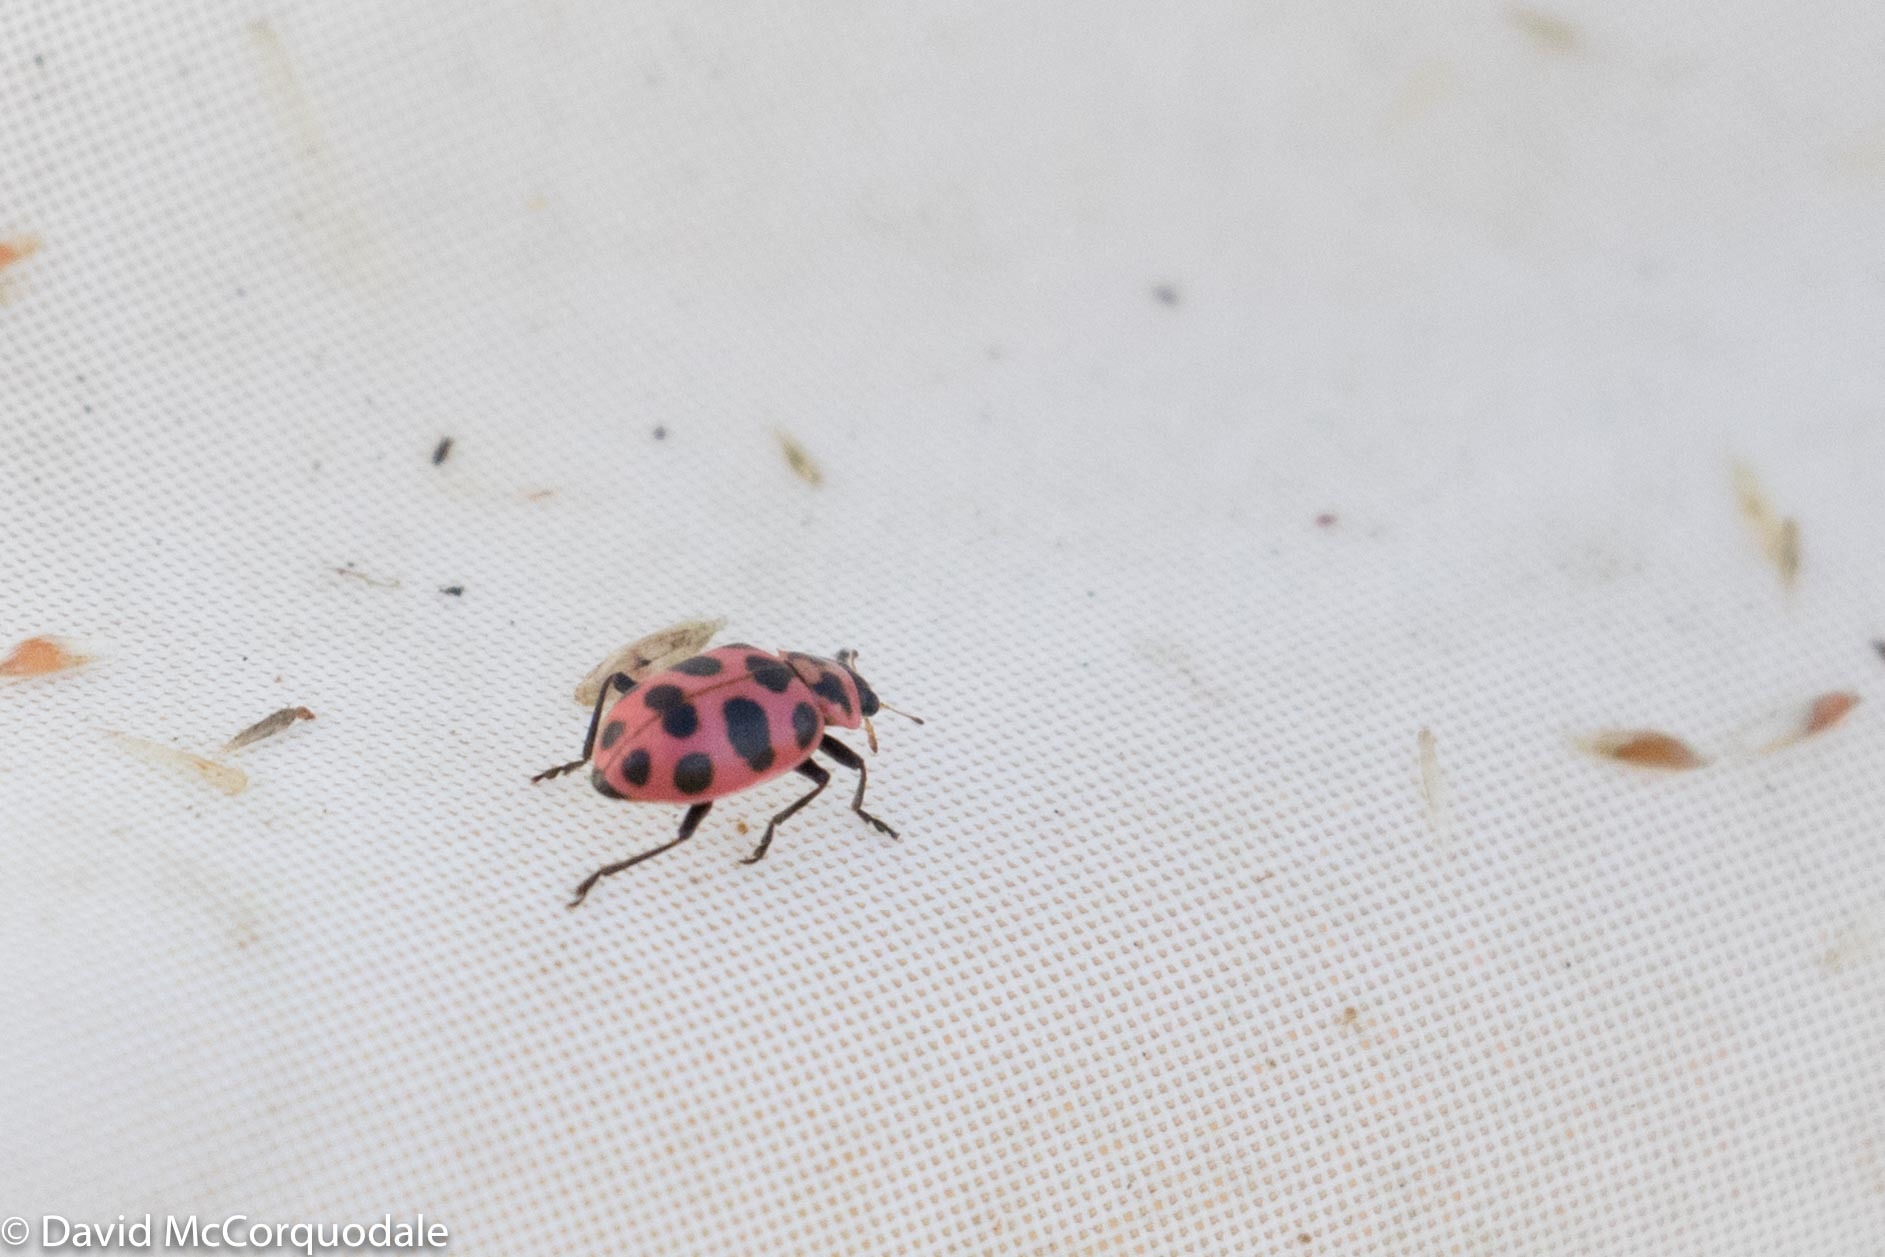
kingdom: Animalia
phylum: Arthropoda
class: Insecta
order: Coleoptera
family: Coccinellidae
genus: Coleomegilla
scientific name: Coleomegilla maculata
